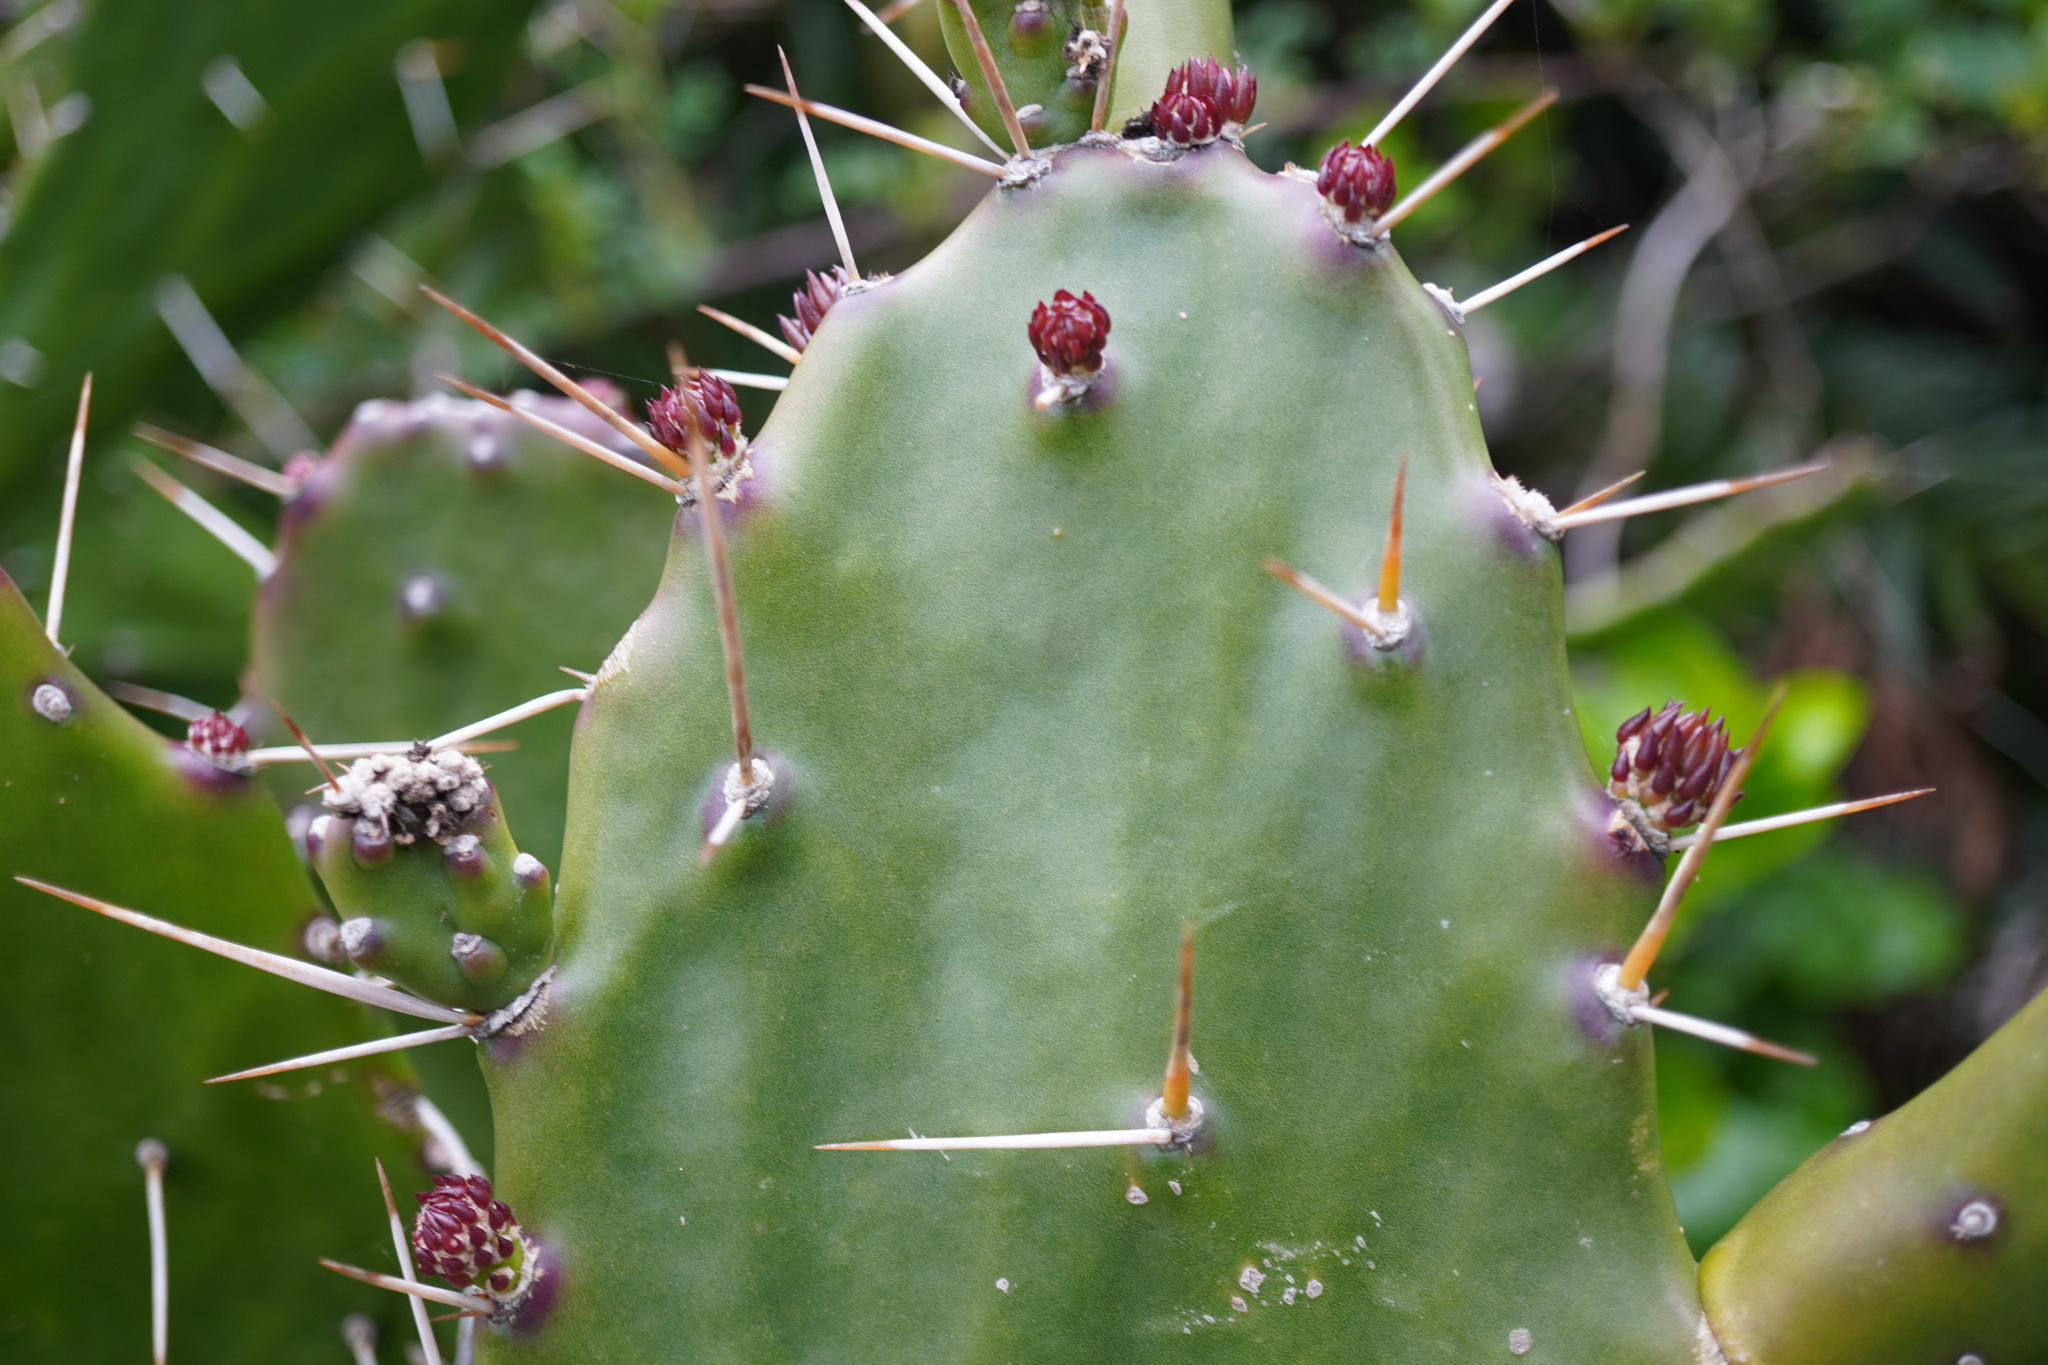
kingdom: Plantae
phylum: Tracheophyta
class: Magnoliopsida
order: Caryophyllales
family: Cactaceae
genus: Opuntia
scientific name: Opuntia monacantha
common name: Common pricklypear
